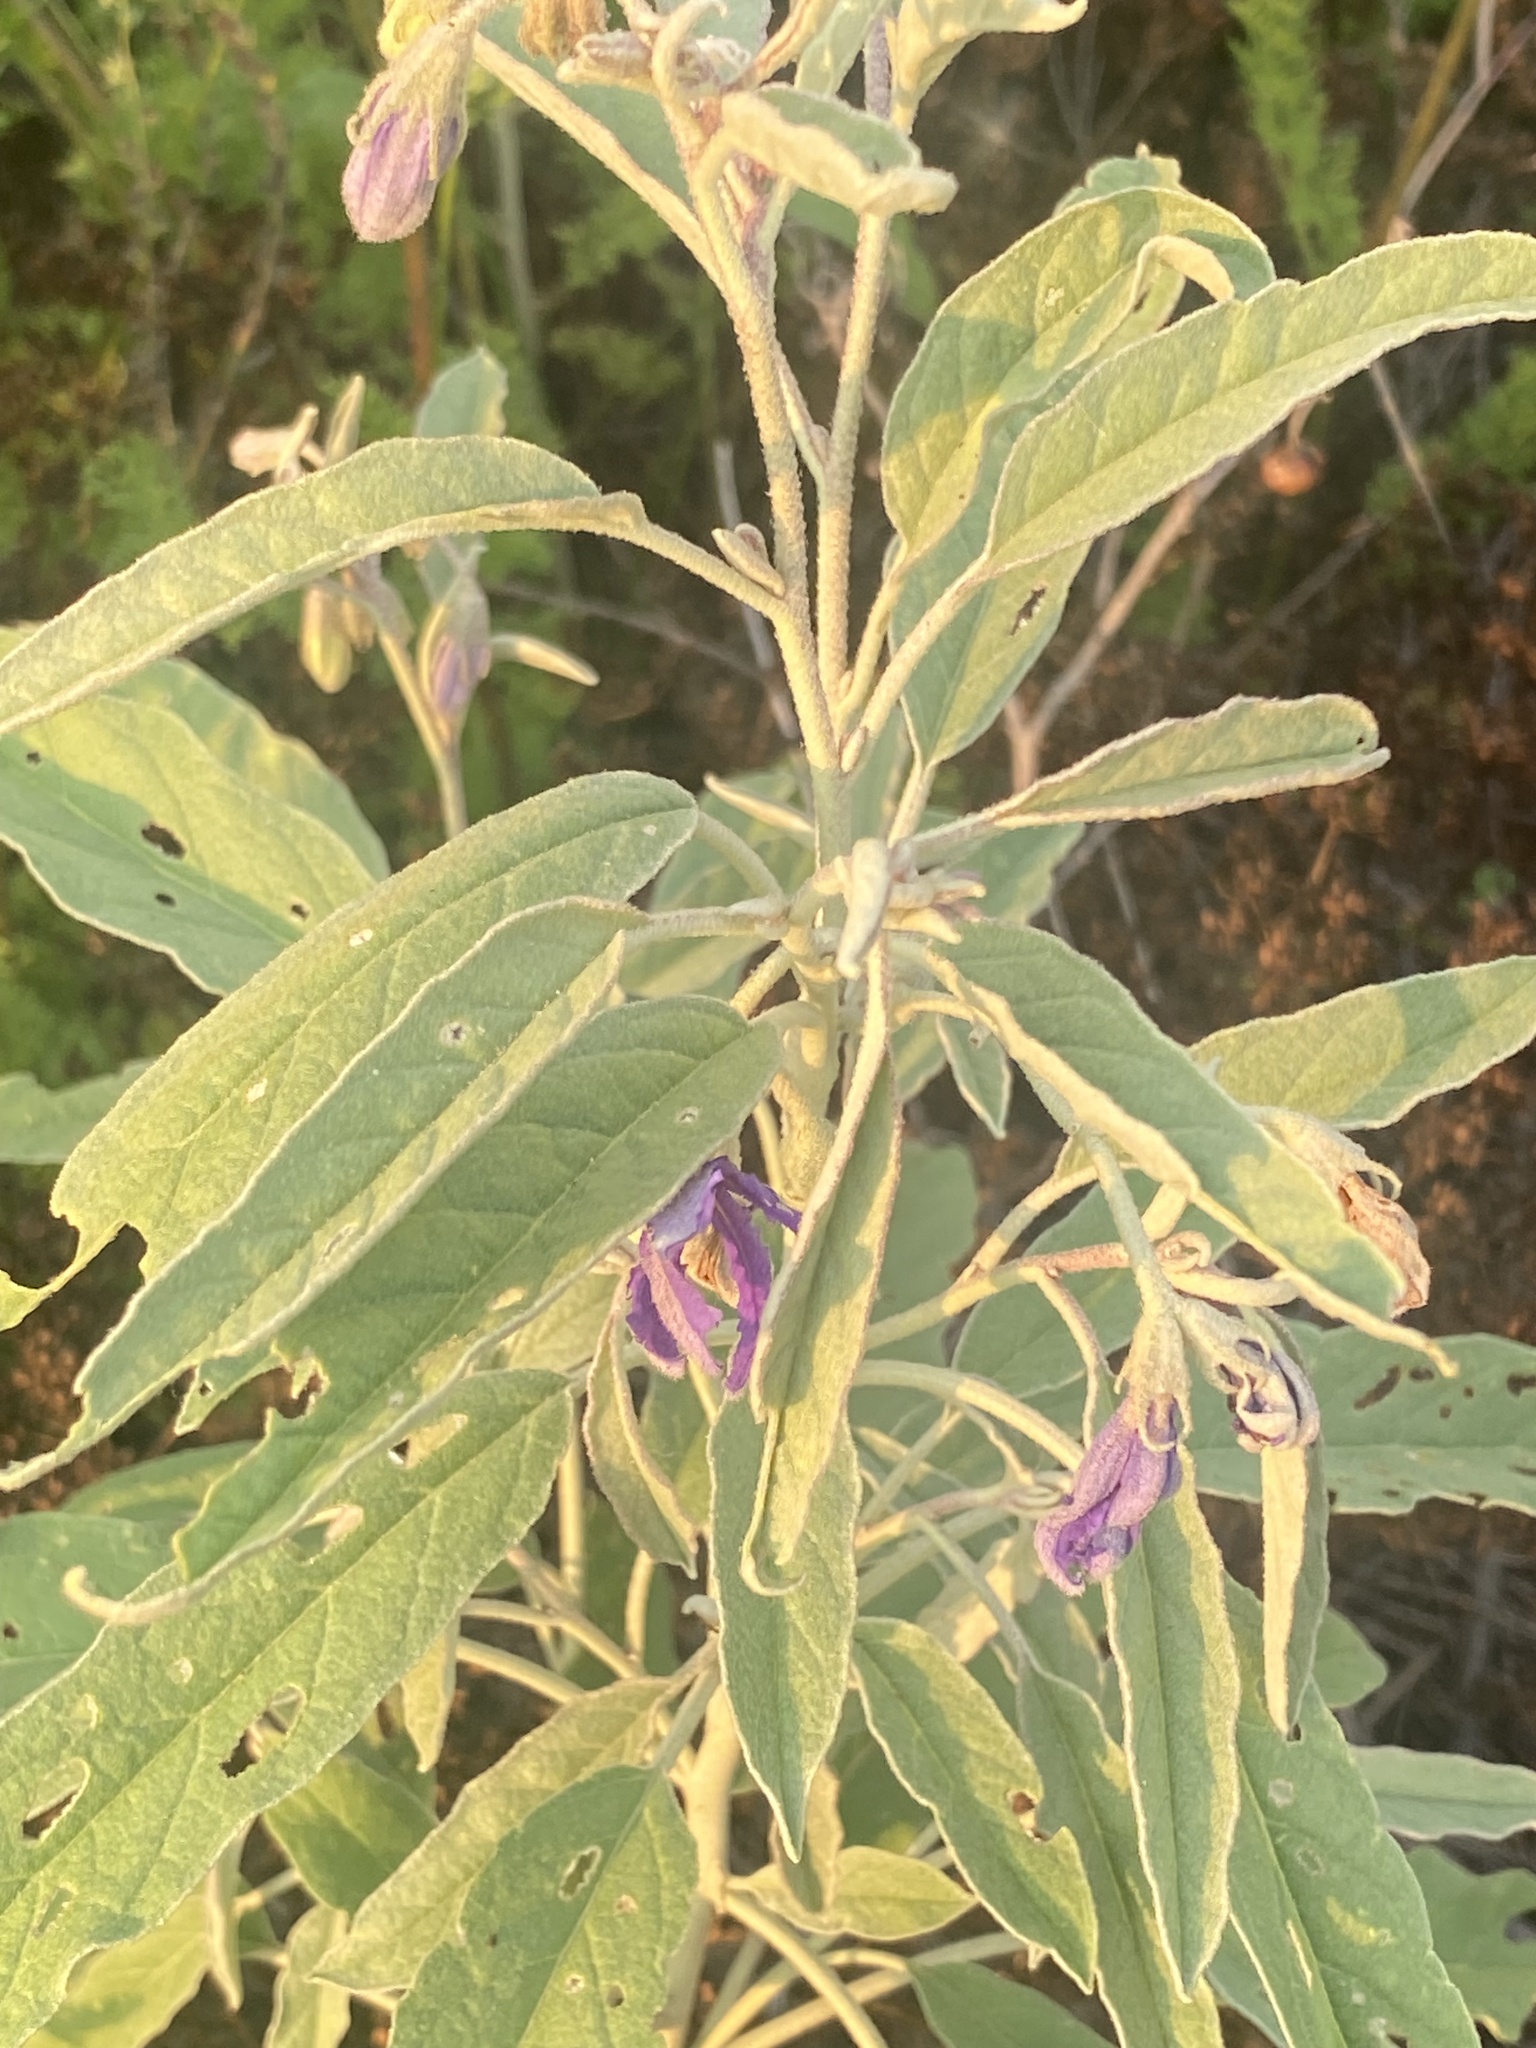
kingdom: Plantae
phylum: Tracheophyta
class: Magnoliopsida
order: Solanales
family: Solanaceae
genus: Solanum
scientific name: Solanum elaeagnifolium
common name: Silverleaf nightshade
